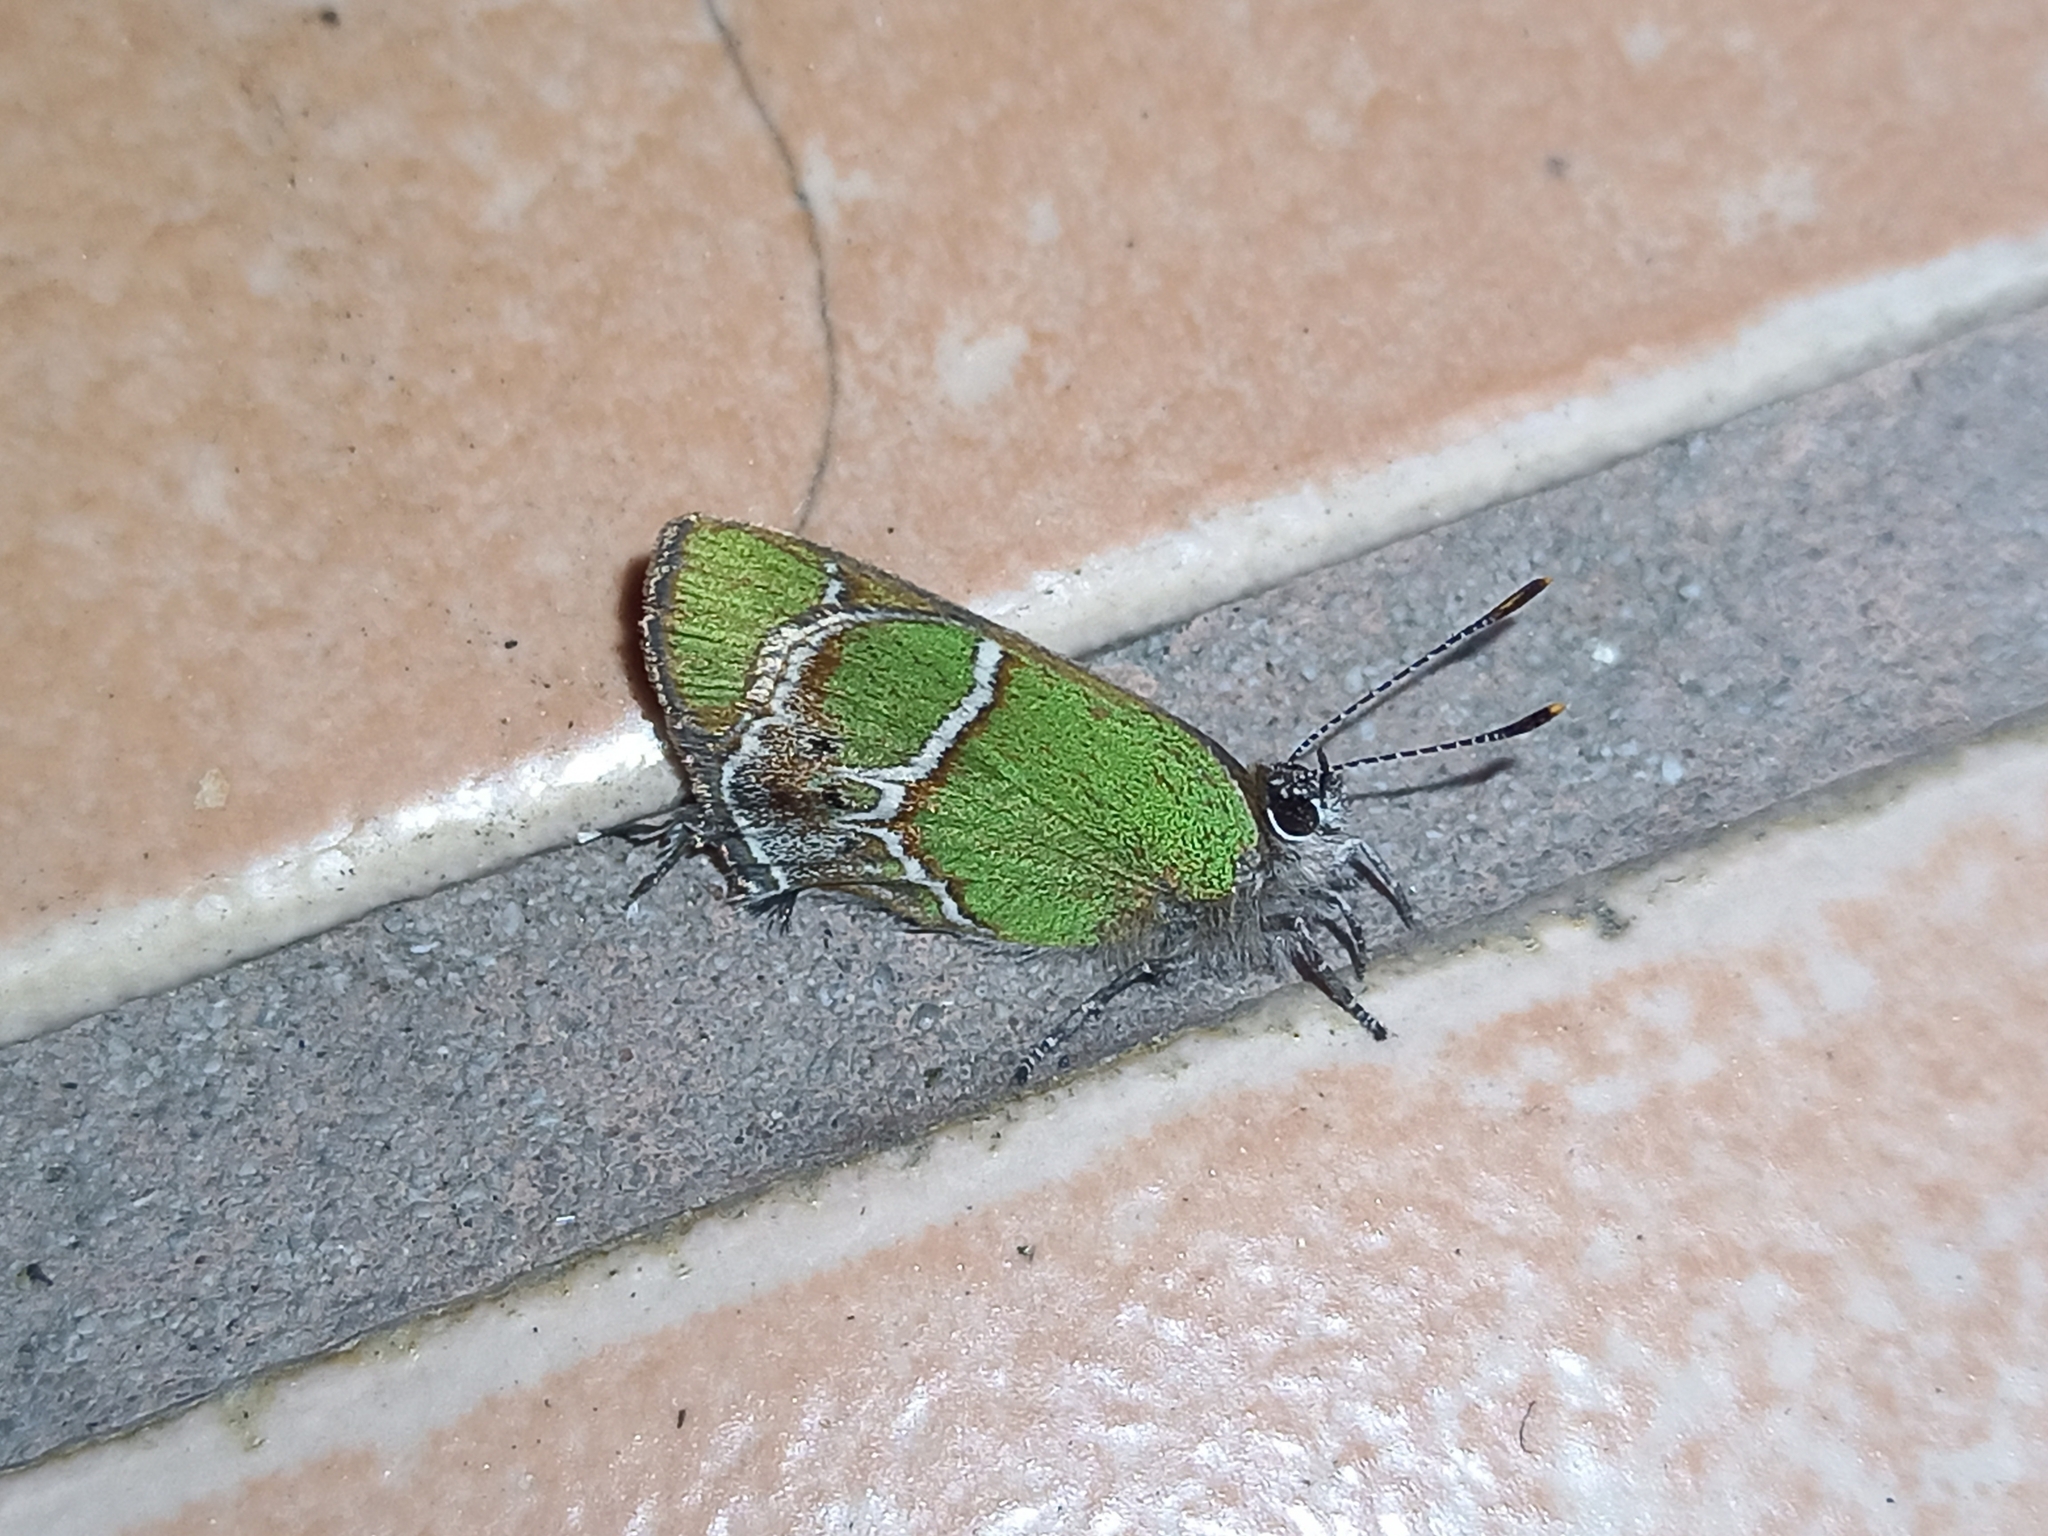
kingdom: Animalia
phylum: Arthropoda
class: Insecta
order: Lepidoptera
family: Lycaenidae
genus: Xamia
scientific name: Xamia xami
